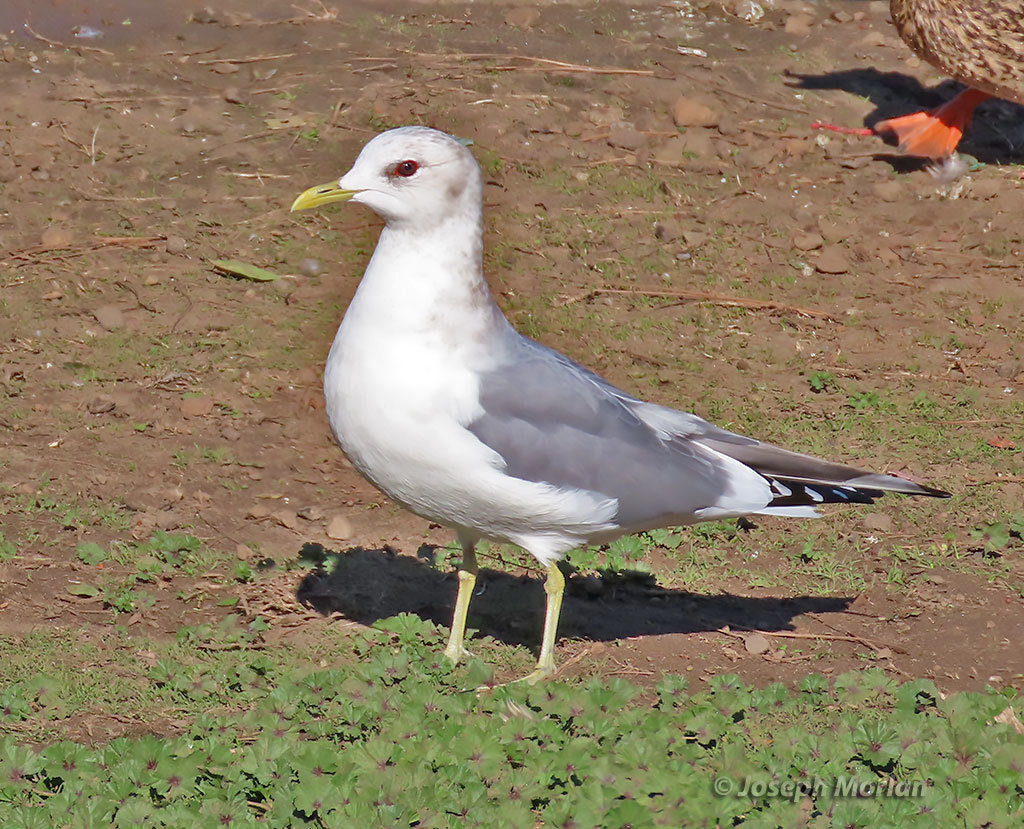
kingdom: Animalia
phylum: Chordata
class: Aves
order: Charadriiformes
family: Laridae
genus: Larus
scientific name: Larus brachyrhynchus
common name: Short-billed gull
